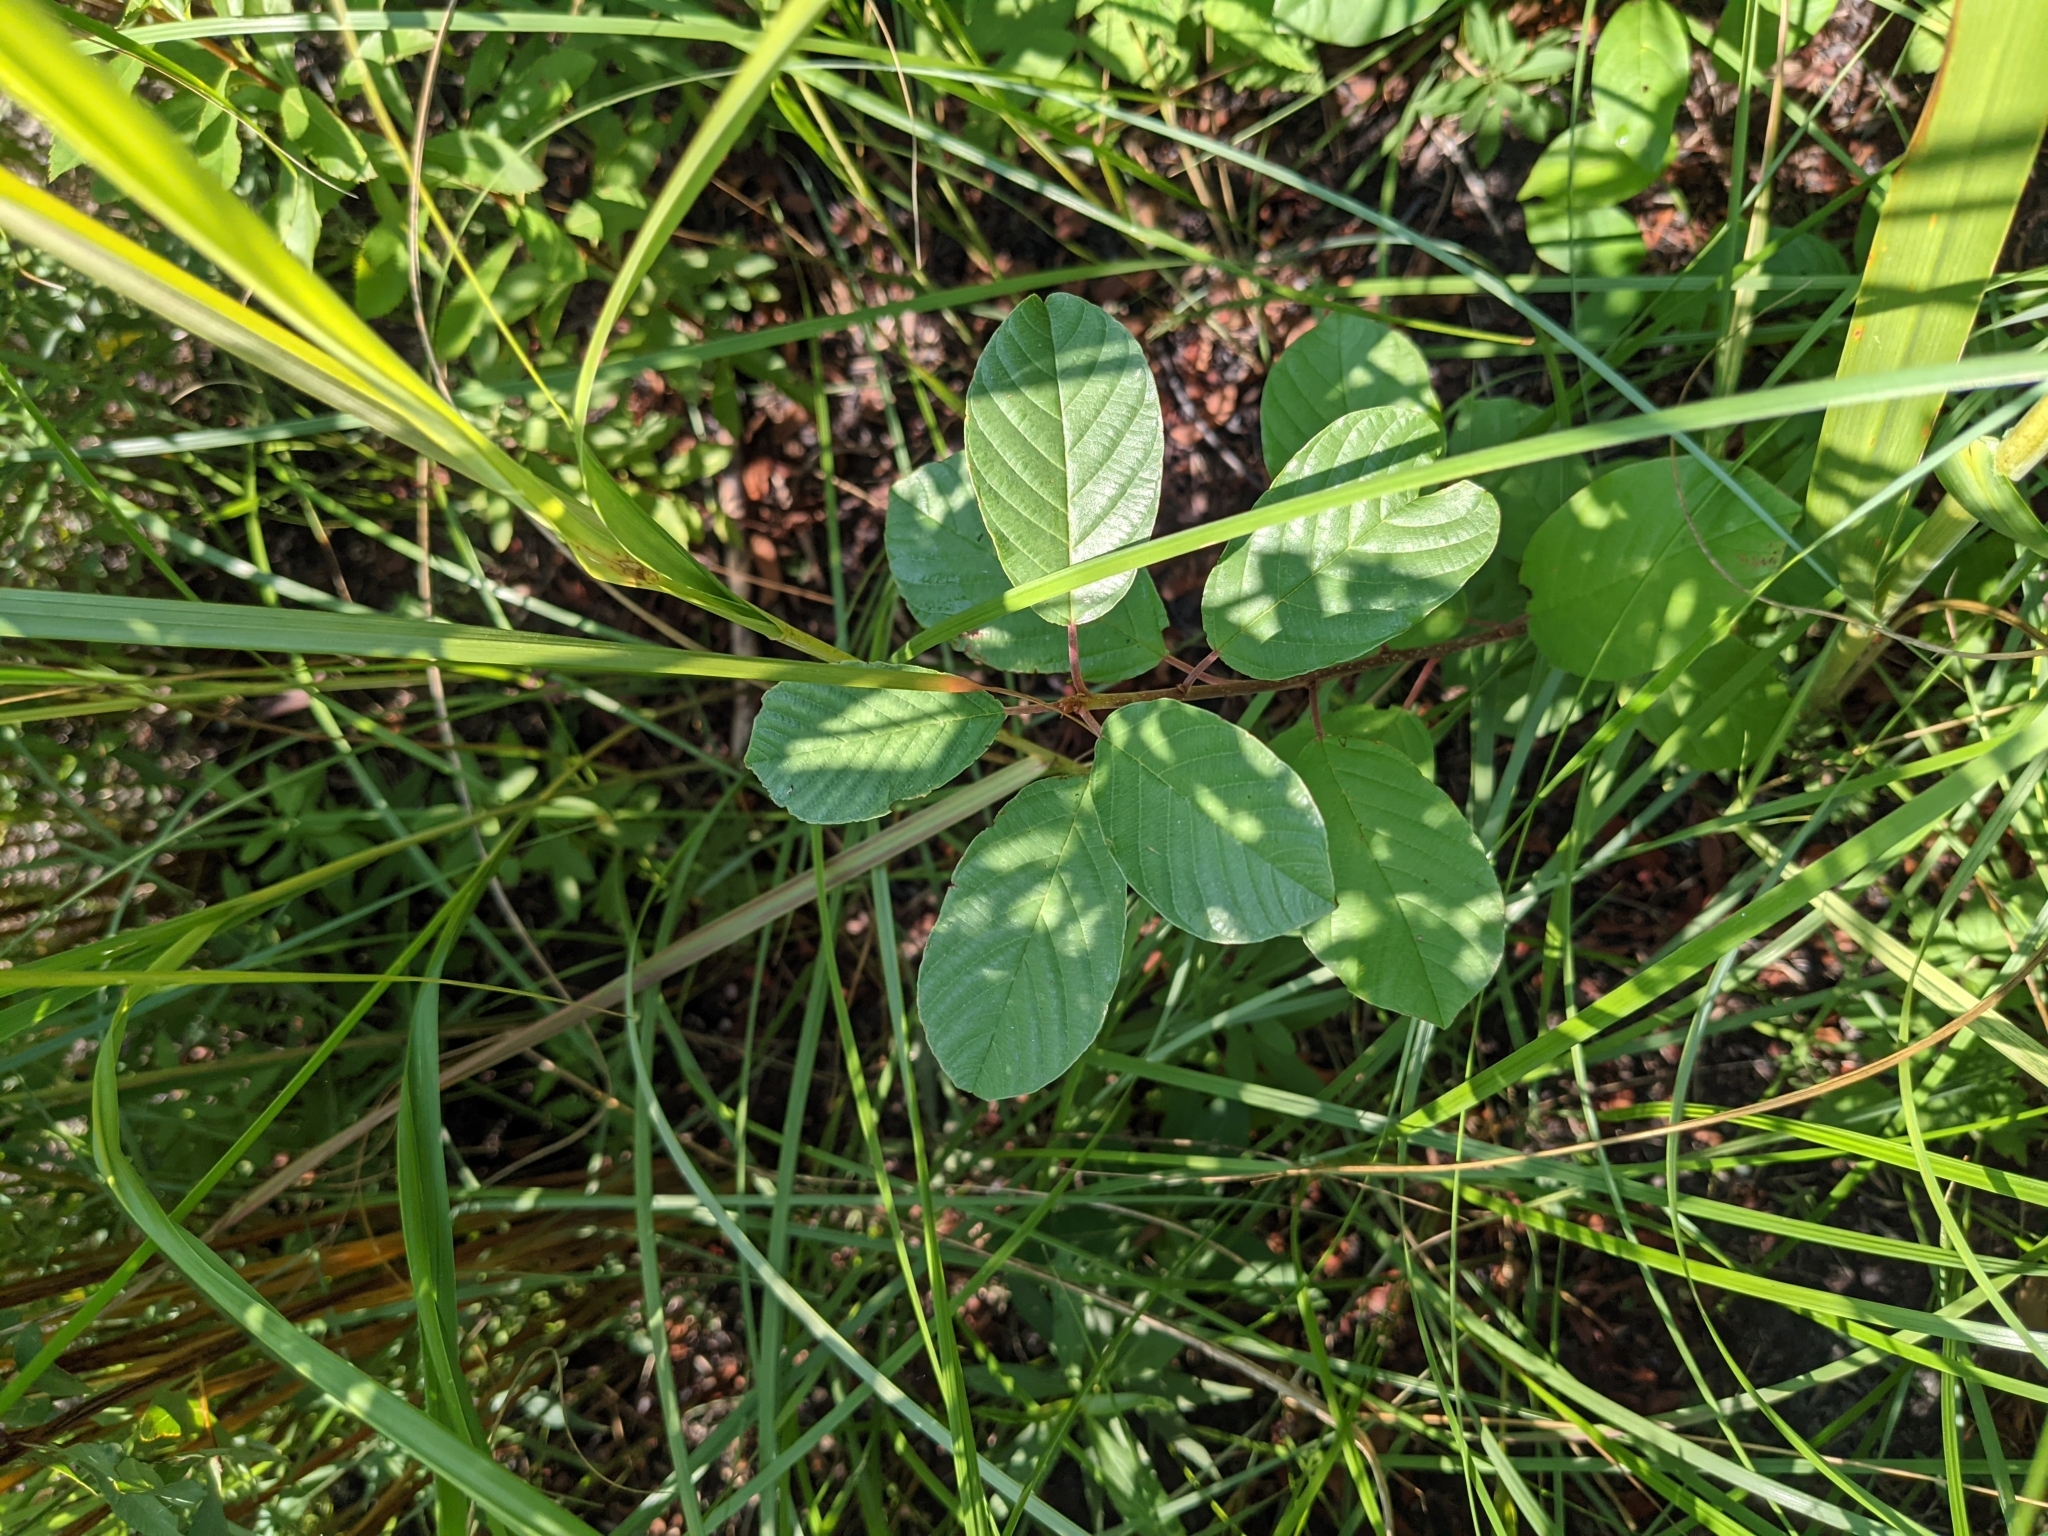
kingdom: Plantae
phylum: Tracheophyta
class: Magnoliopsida
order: Rosales
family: Rhamnaceae
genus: Frangula
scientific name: Frangula alnus
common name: Alder buckthorn
